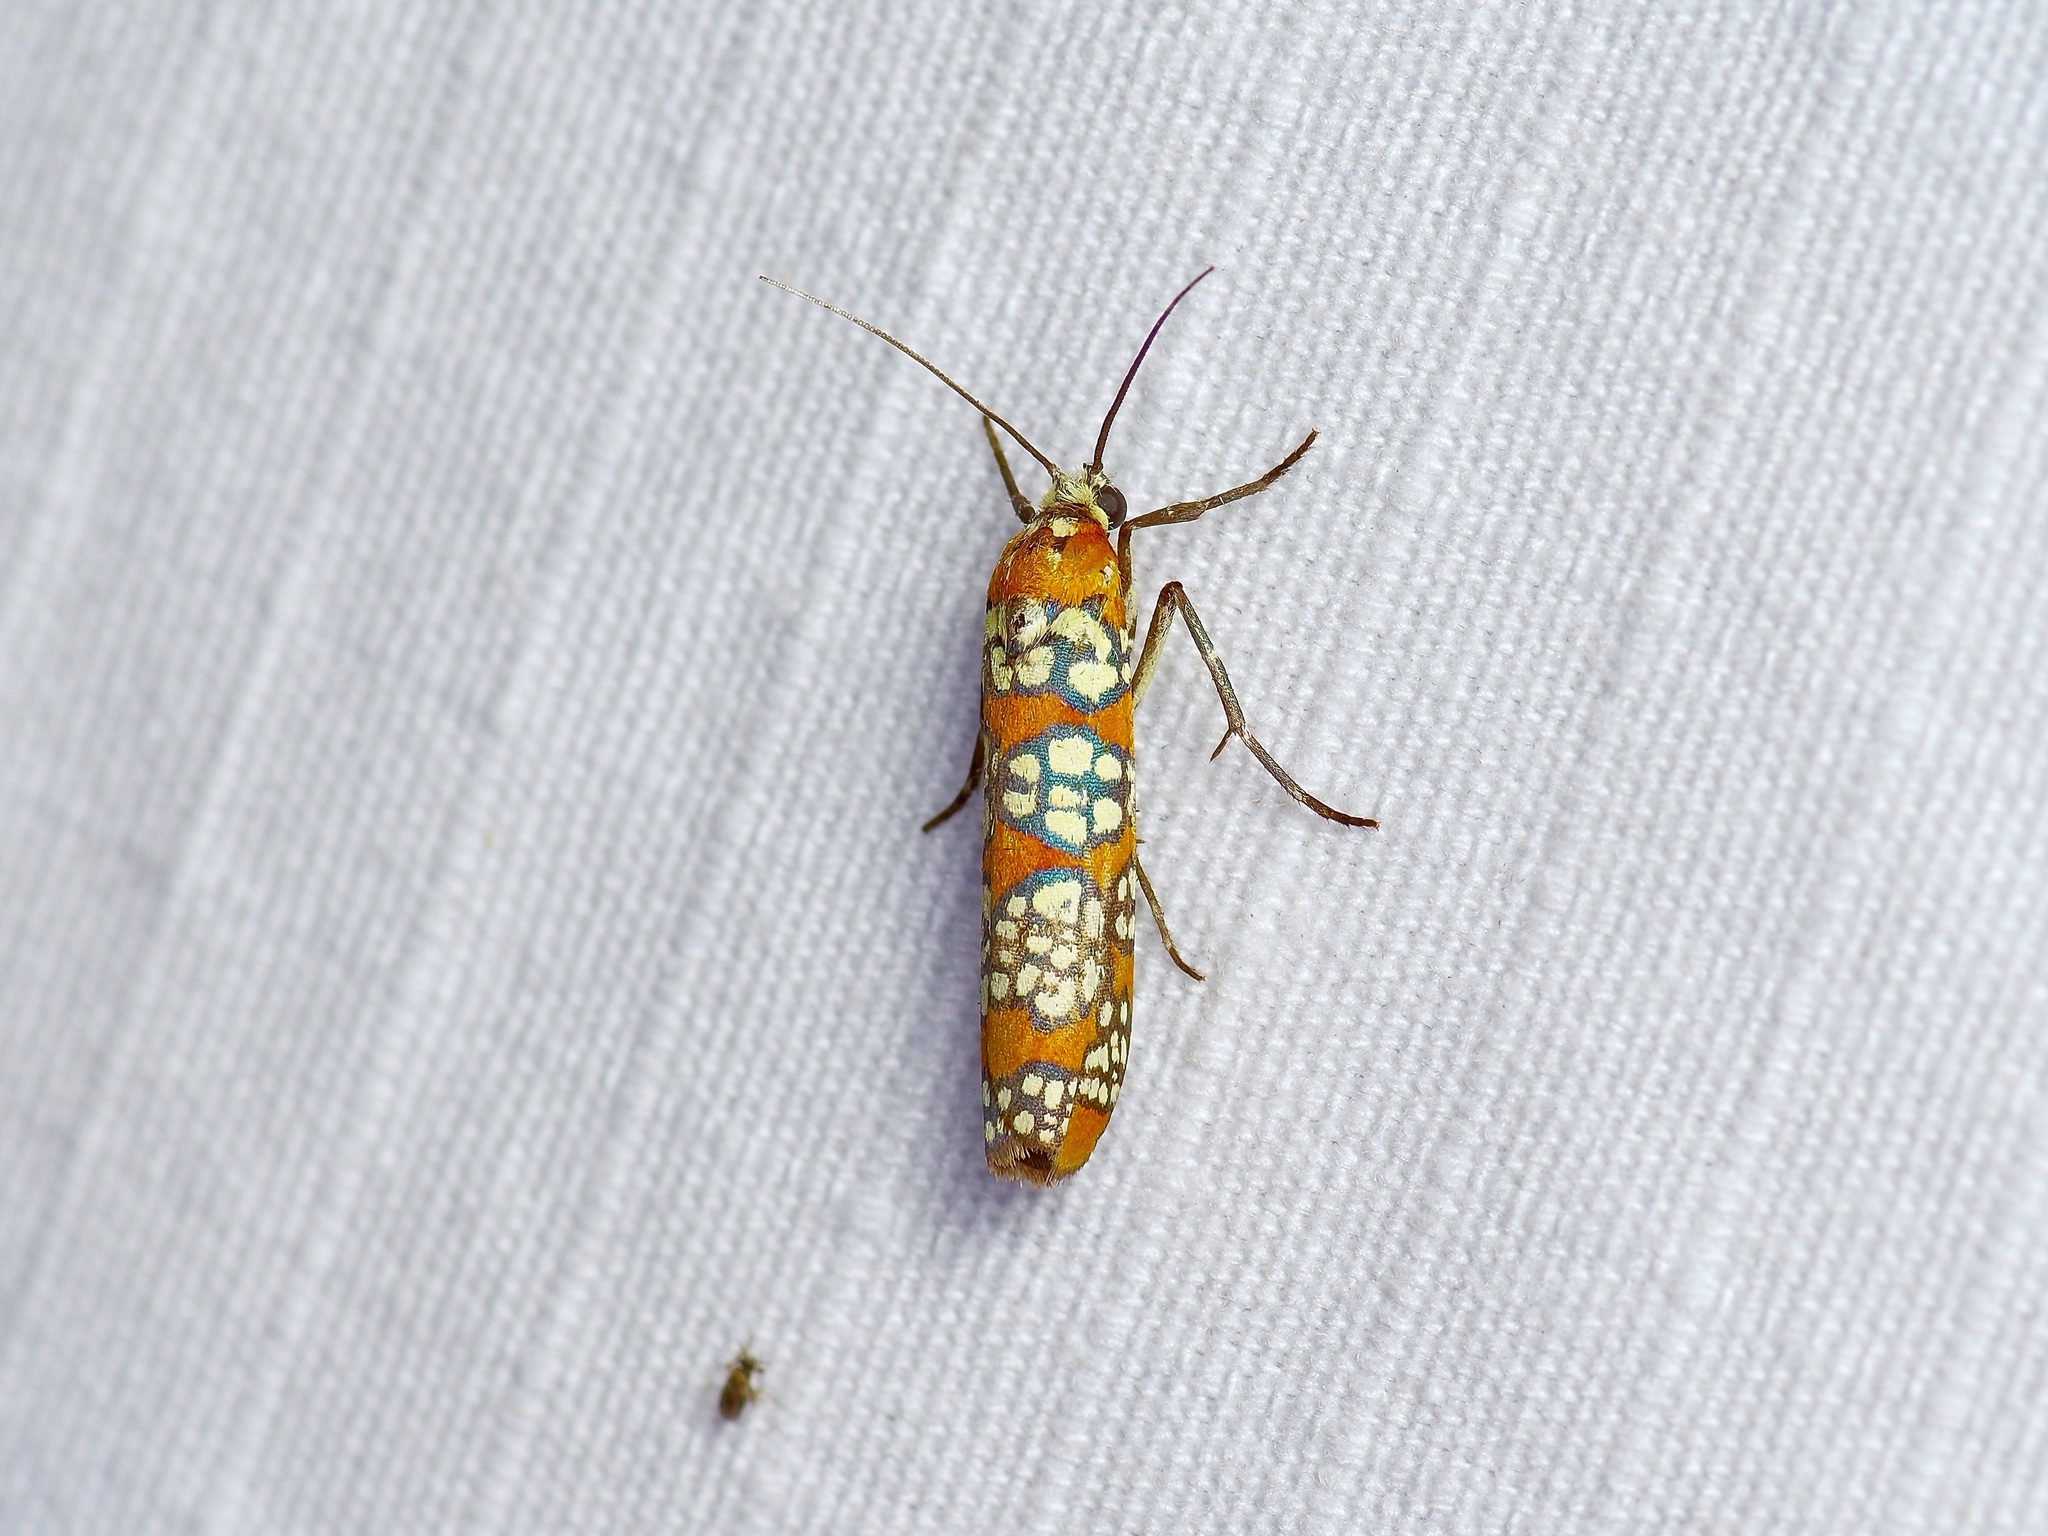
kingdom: Animalia
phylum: Arthropoda
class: Insecta
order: Lepidoptera
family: Attevidae
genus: Atteva
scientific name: Atteva punctella
